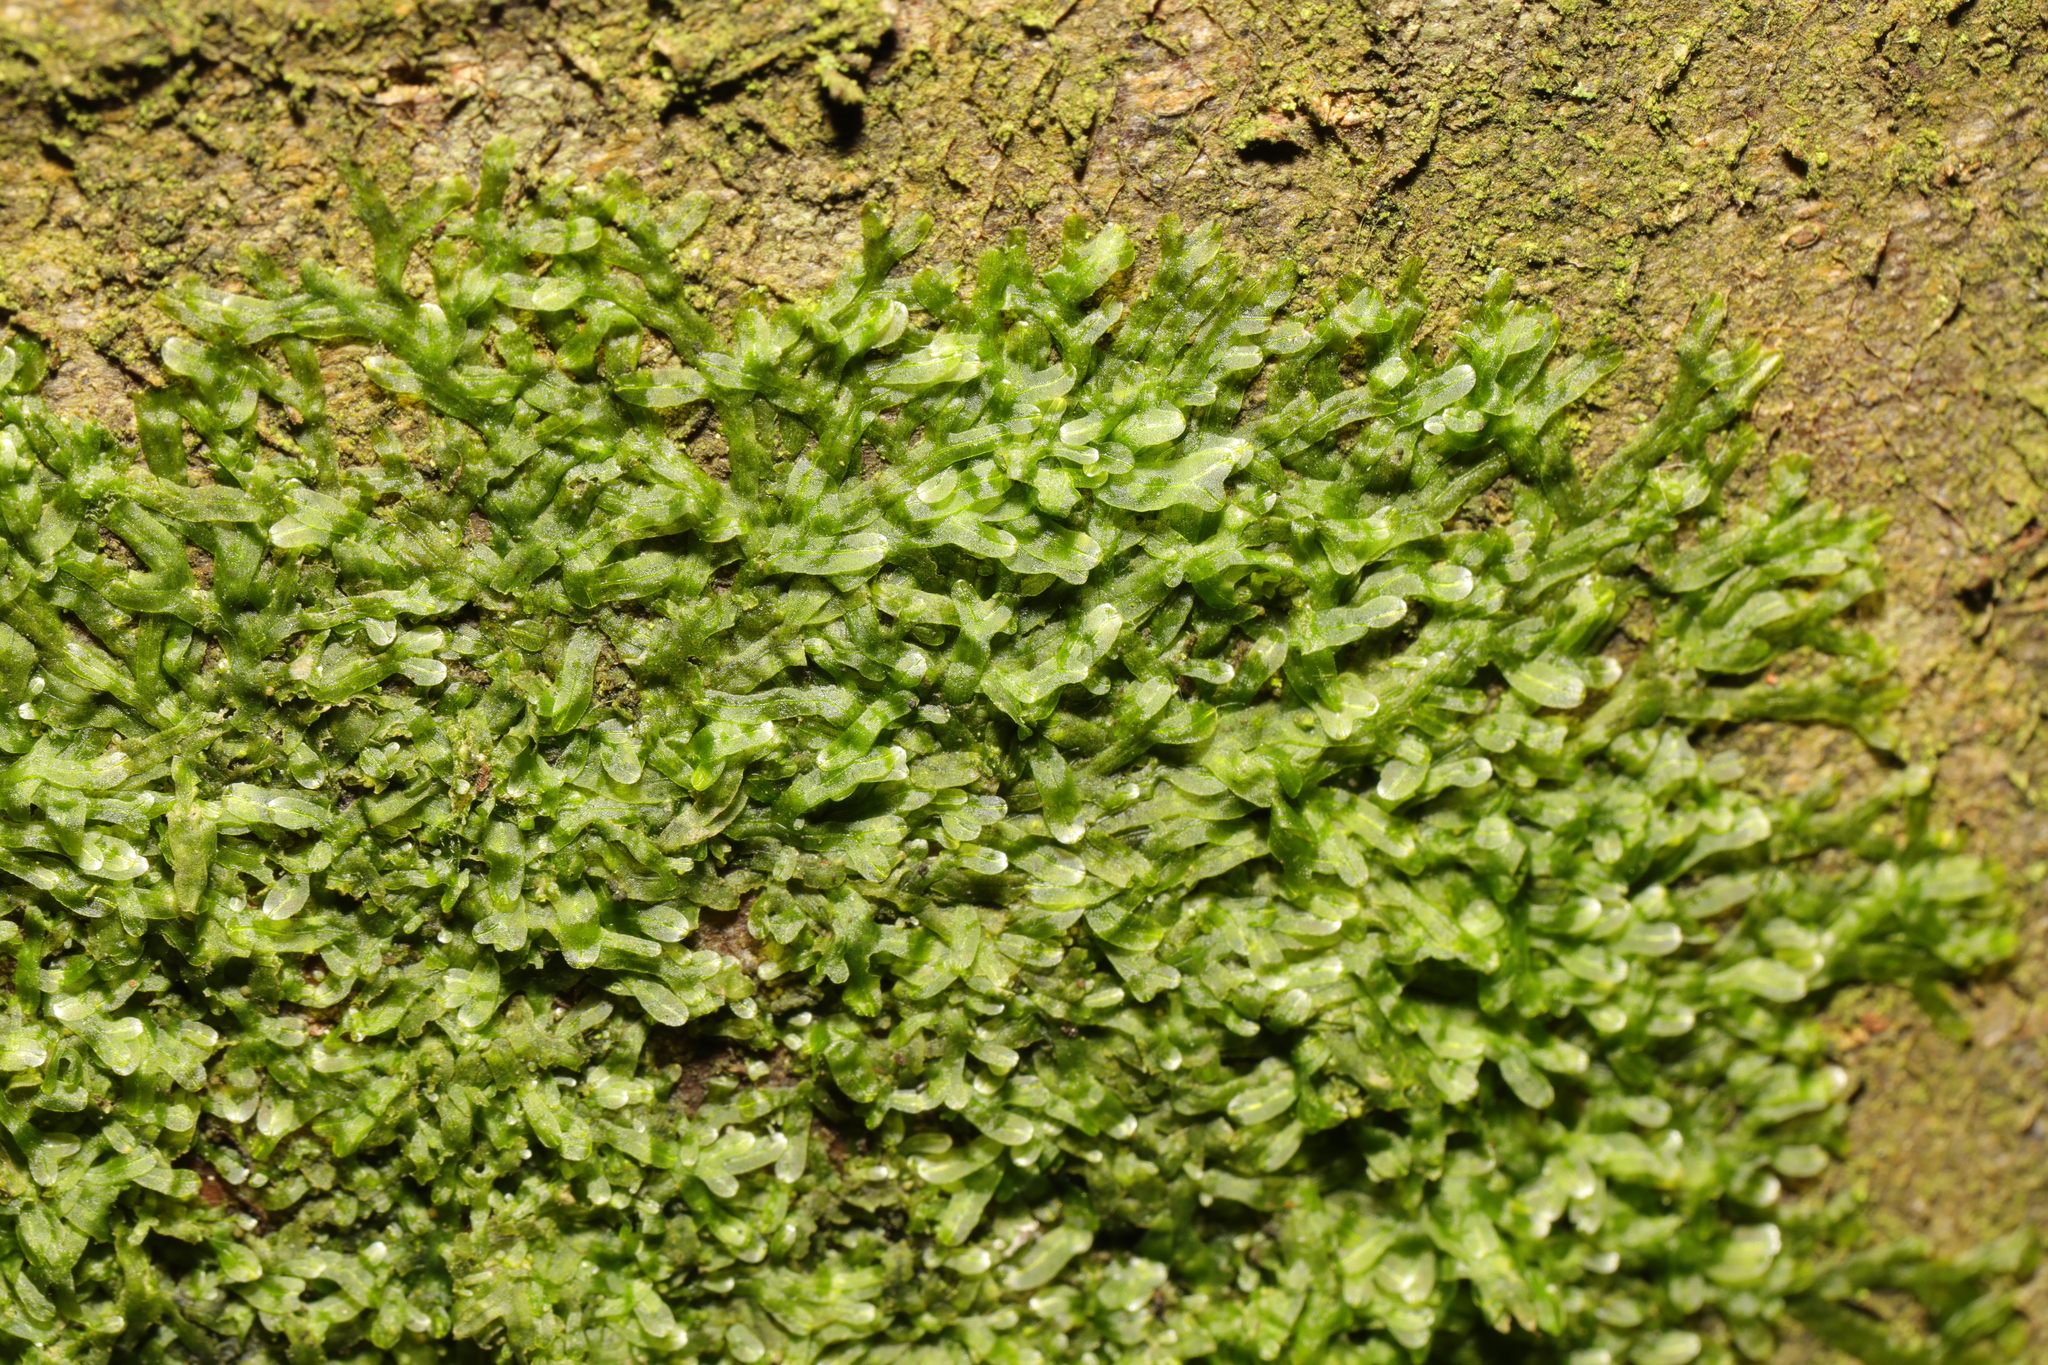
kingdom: Plantae
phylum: Marchantiophyta
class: Jungermanniopsida
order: Metzgeriales
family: Metzgeriaceae
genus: Metzgeria
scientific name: Metzgeria furcata
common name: Forked veilwort
